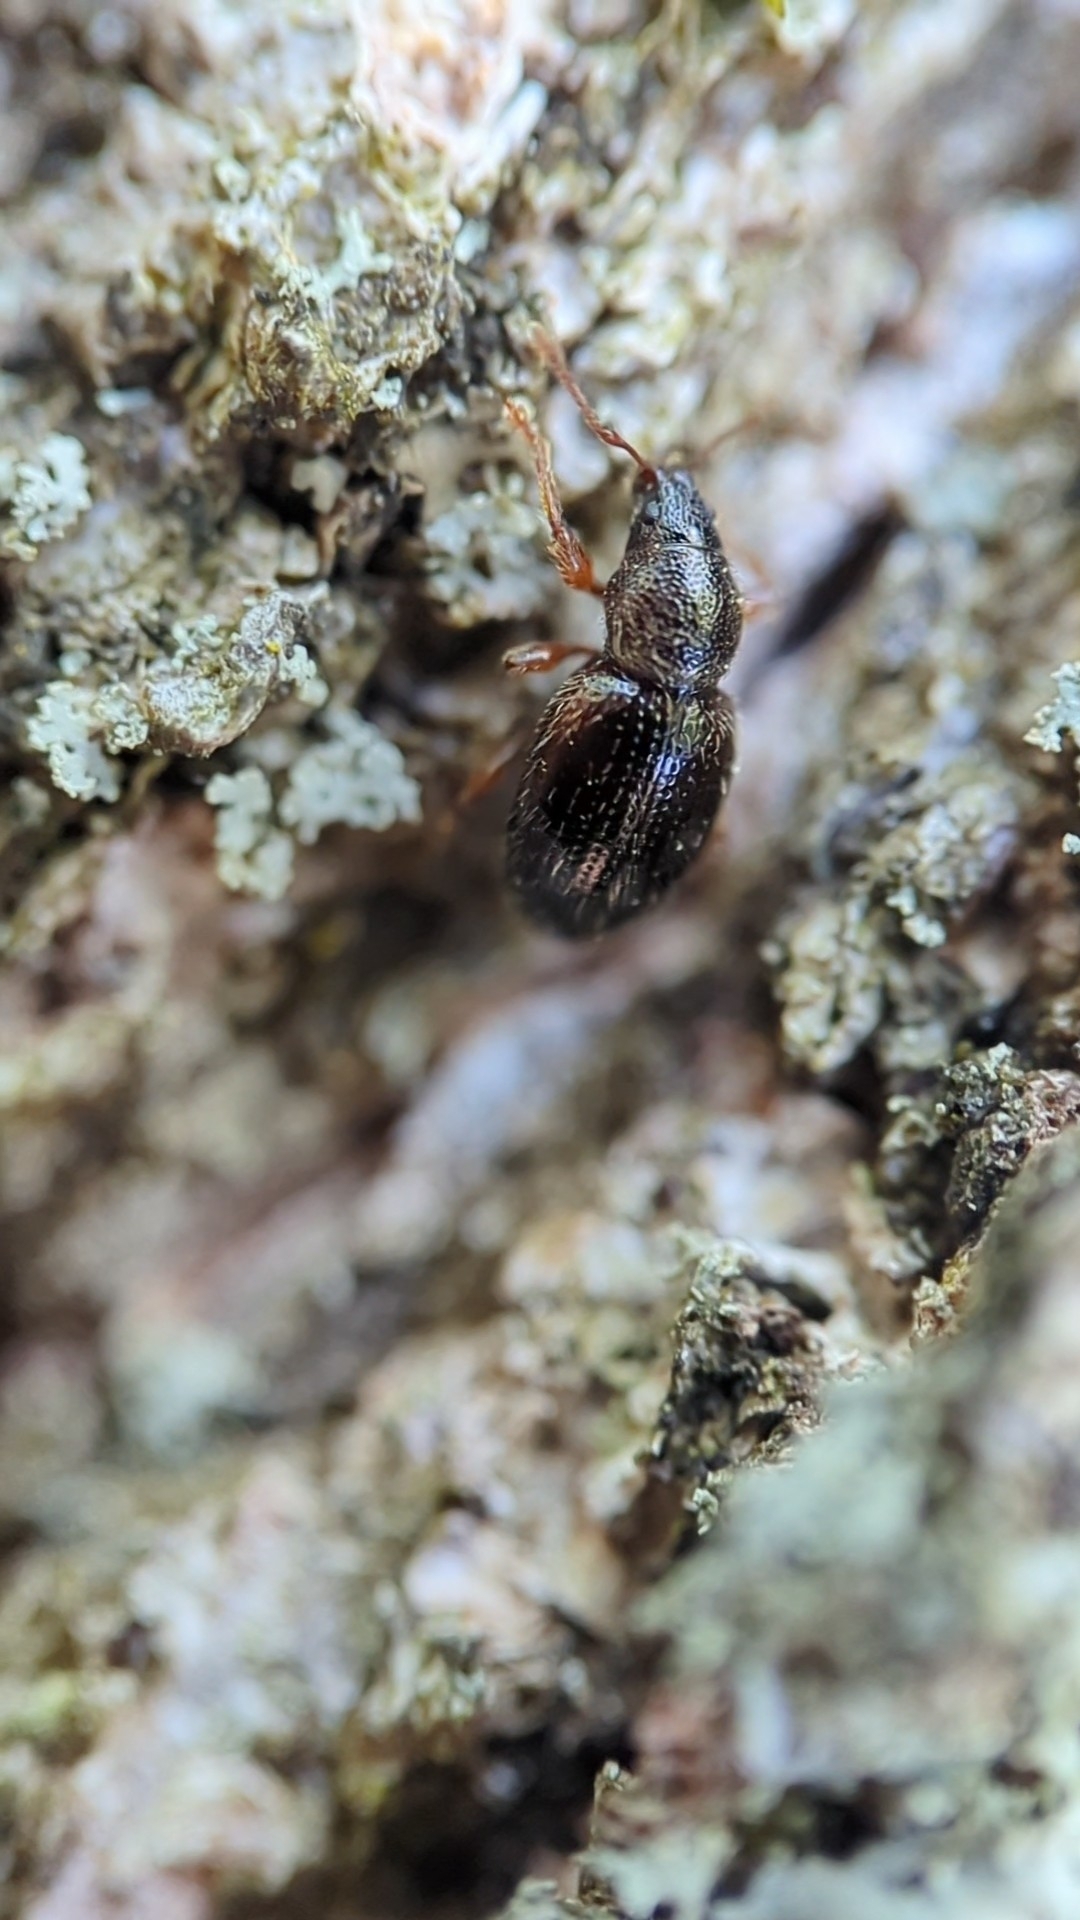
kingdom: Animalia
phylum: Arthropoda
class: Insecta
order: Coleoptera
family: Curculionidae
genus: Exomias
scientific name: Exomias pellucidus
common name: Hairy spider weevil
